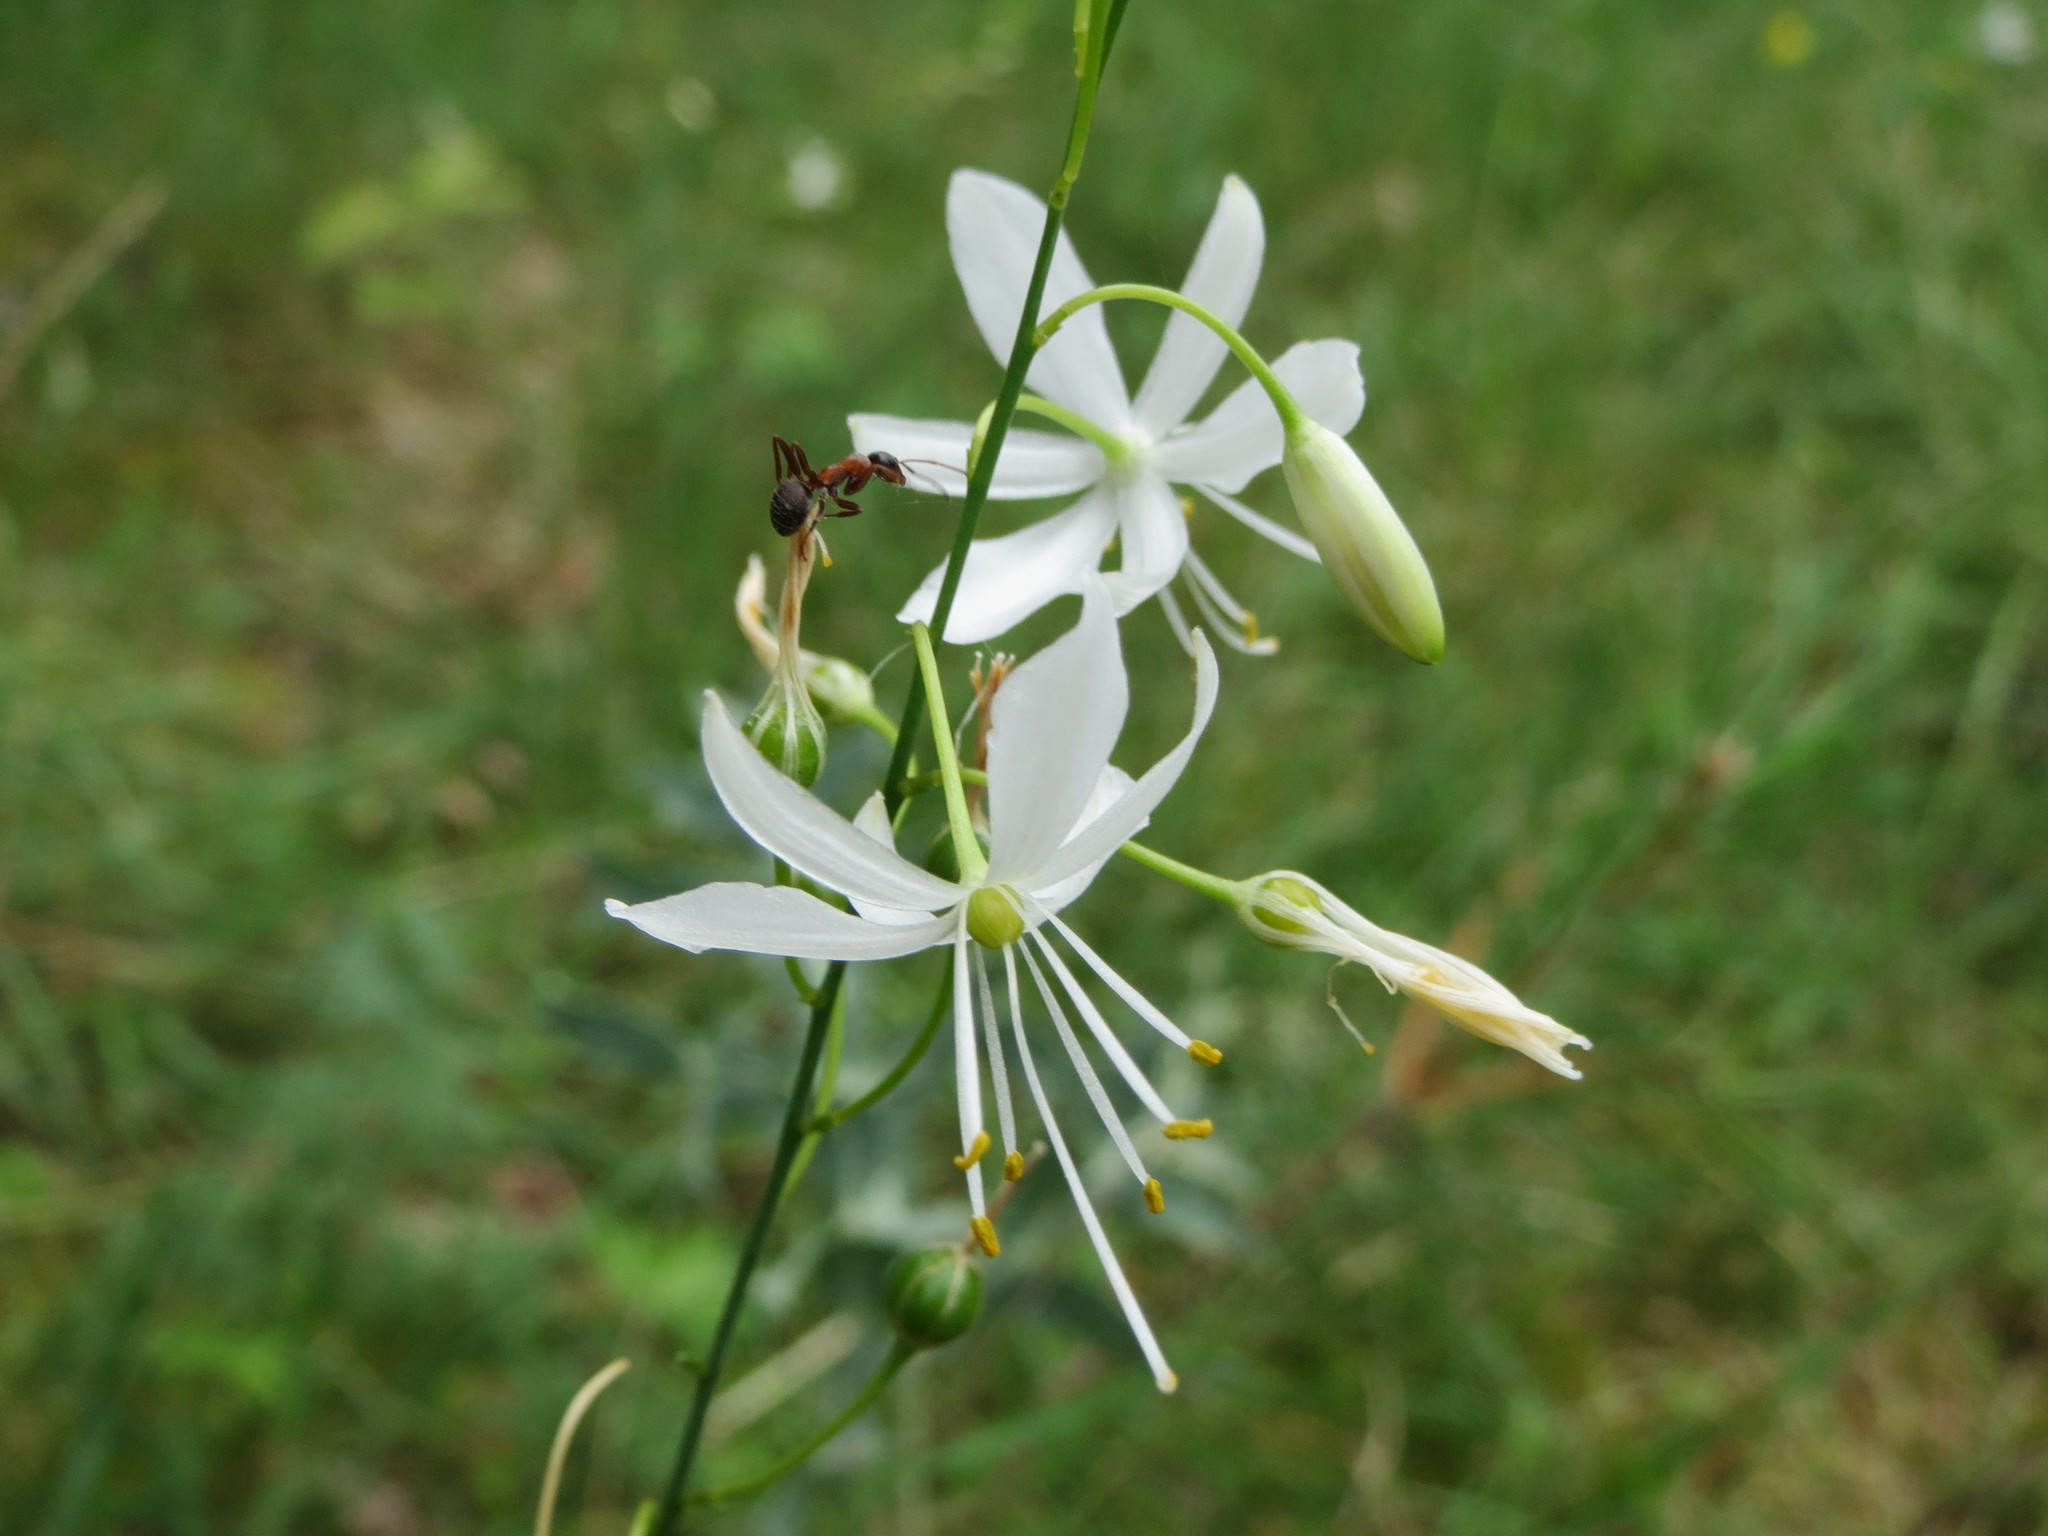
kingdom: Plantae
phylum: Tracheophyta
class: Liliopsida
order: Asparagales
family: Asparagaceae
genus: Anthericum
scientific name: Anthericum ramosum
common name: Branched st. bernard's-lily
